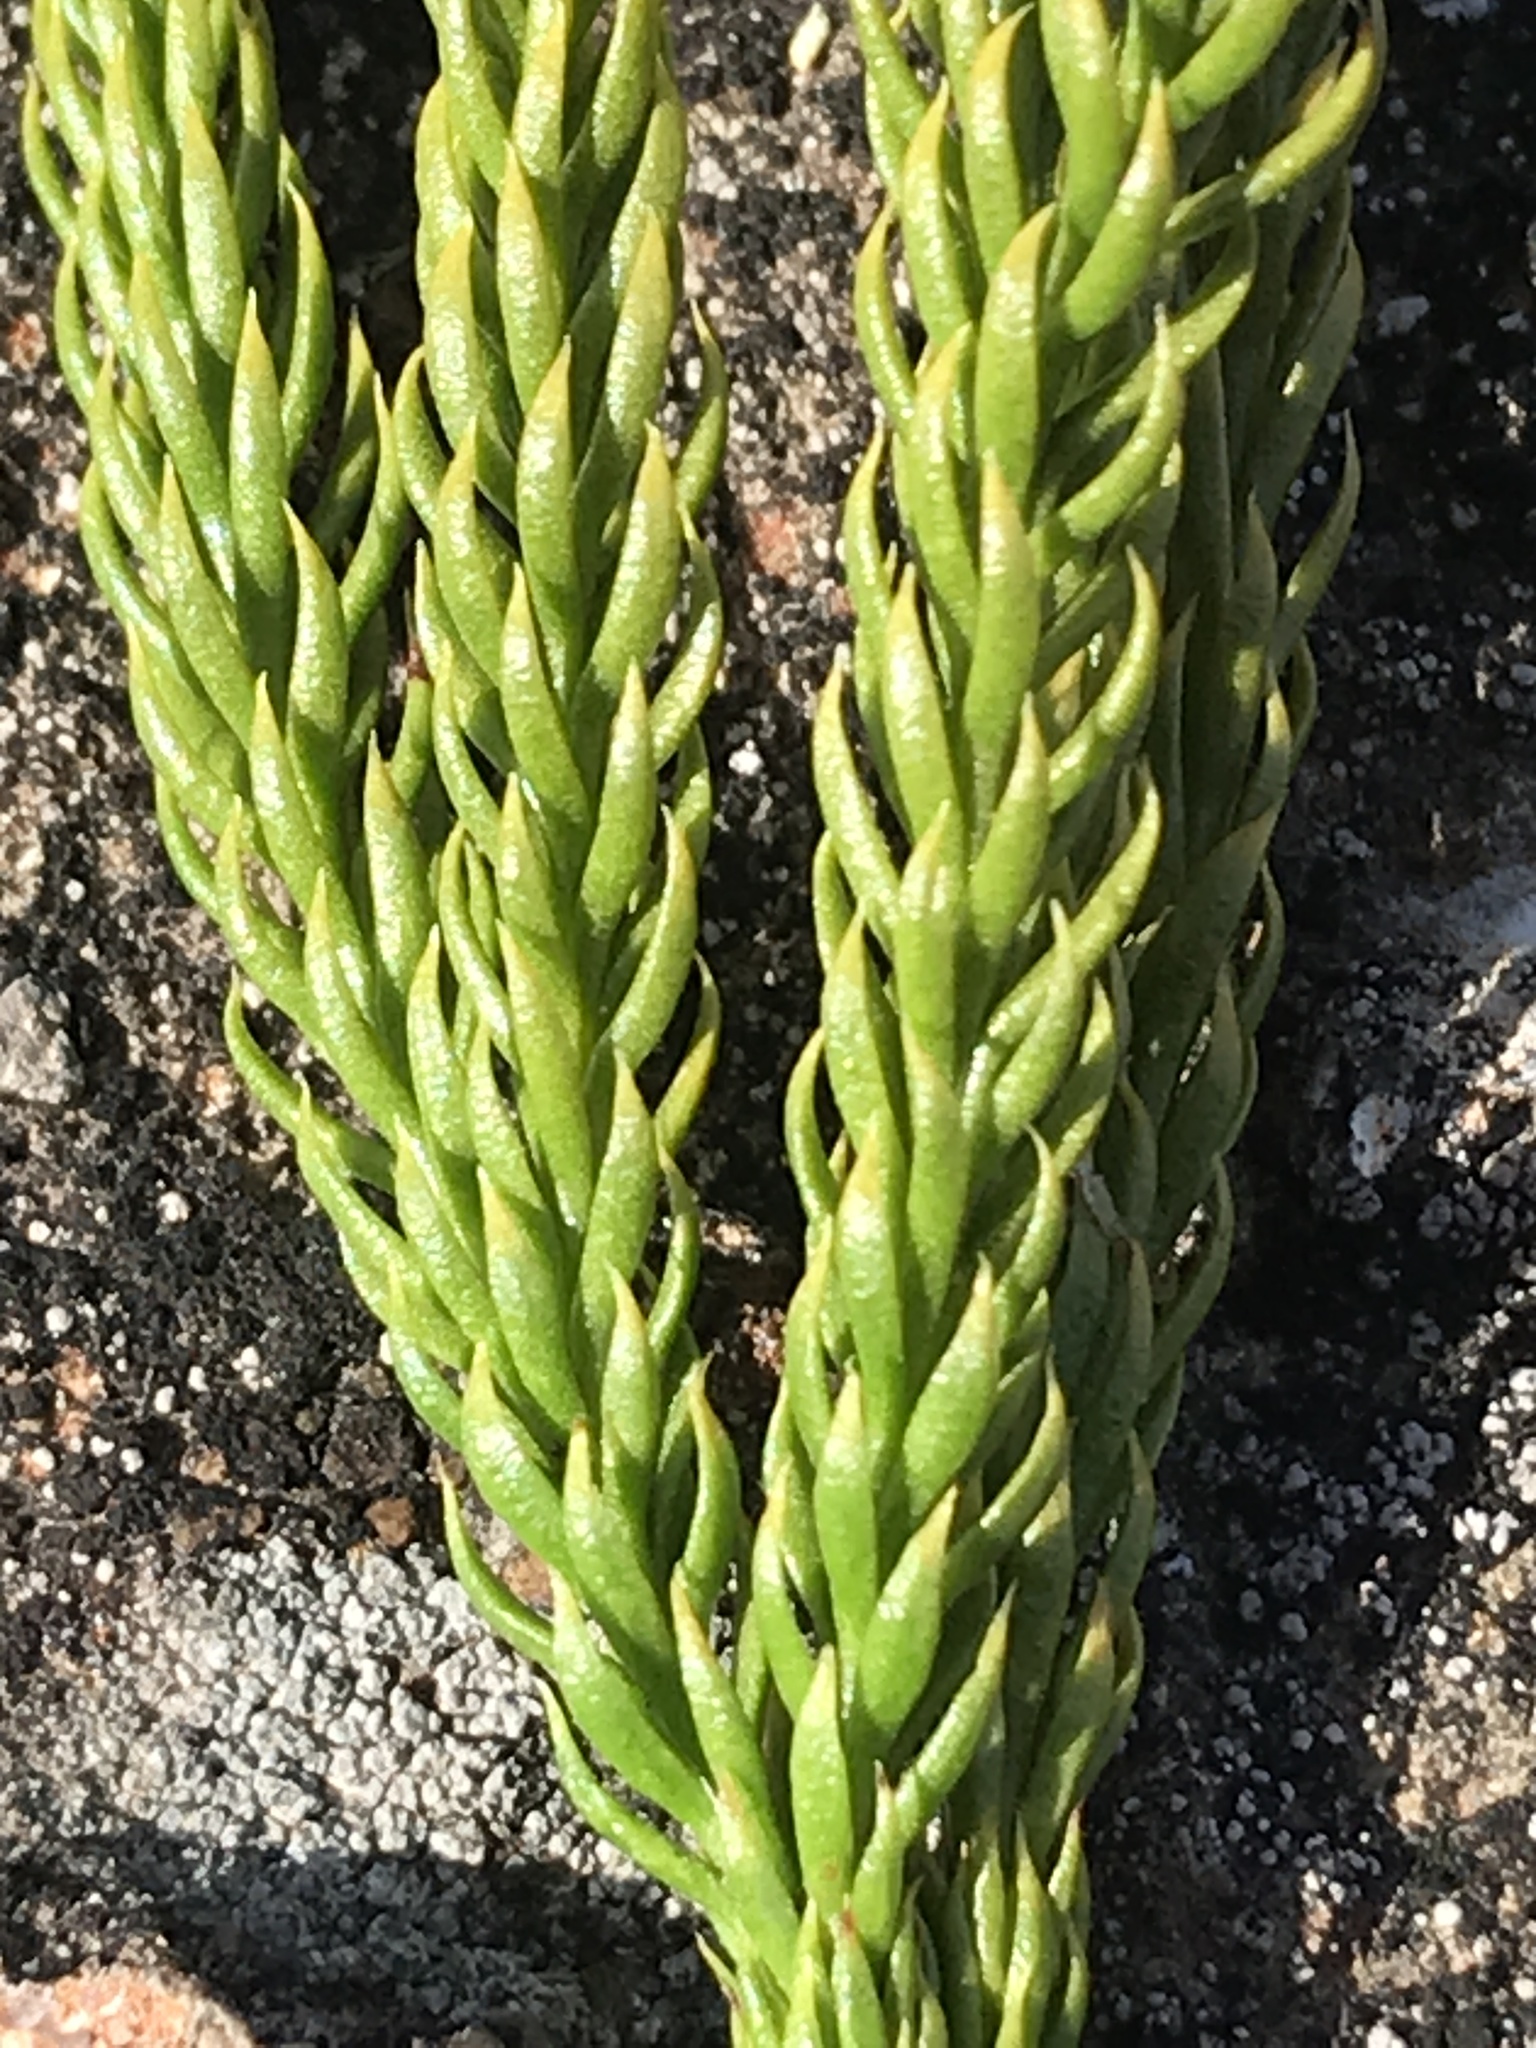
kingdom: Plantae
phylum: Tracheophyta
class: Lycopodiopsida
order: Lycopodiales
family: Lycopodiaceae
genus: Dendrolycopodium
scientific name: Dendrolycopodium hickeyi
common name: Hickey's clubmoss
